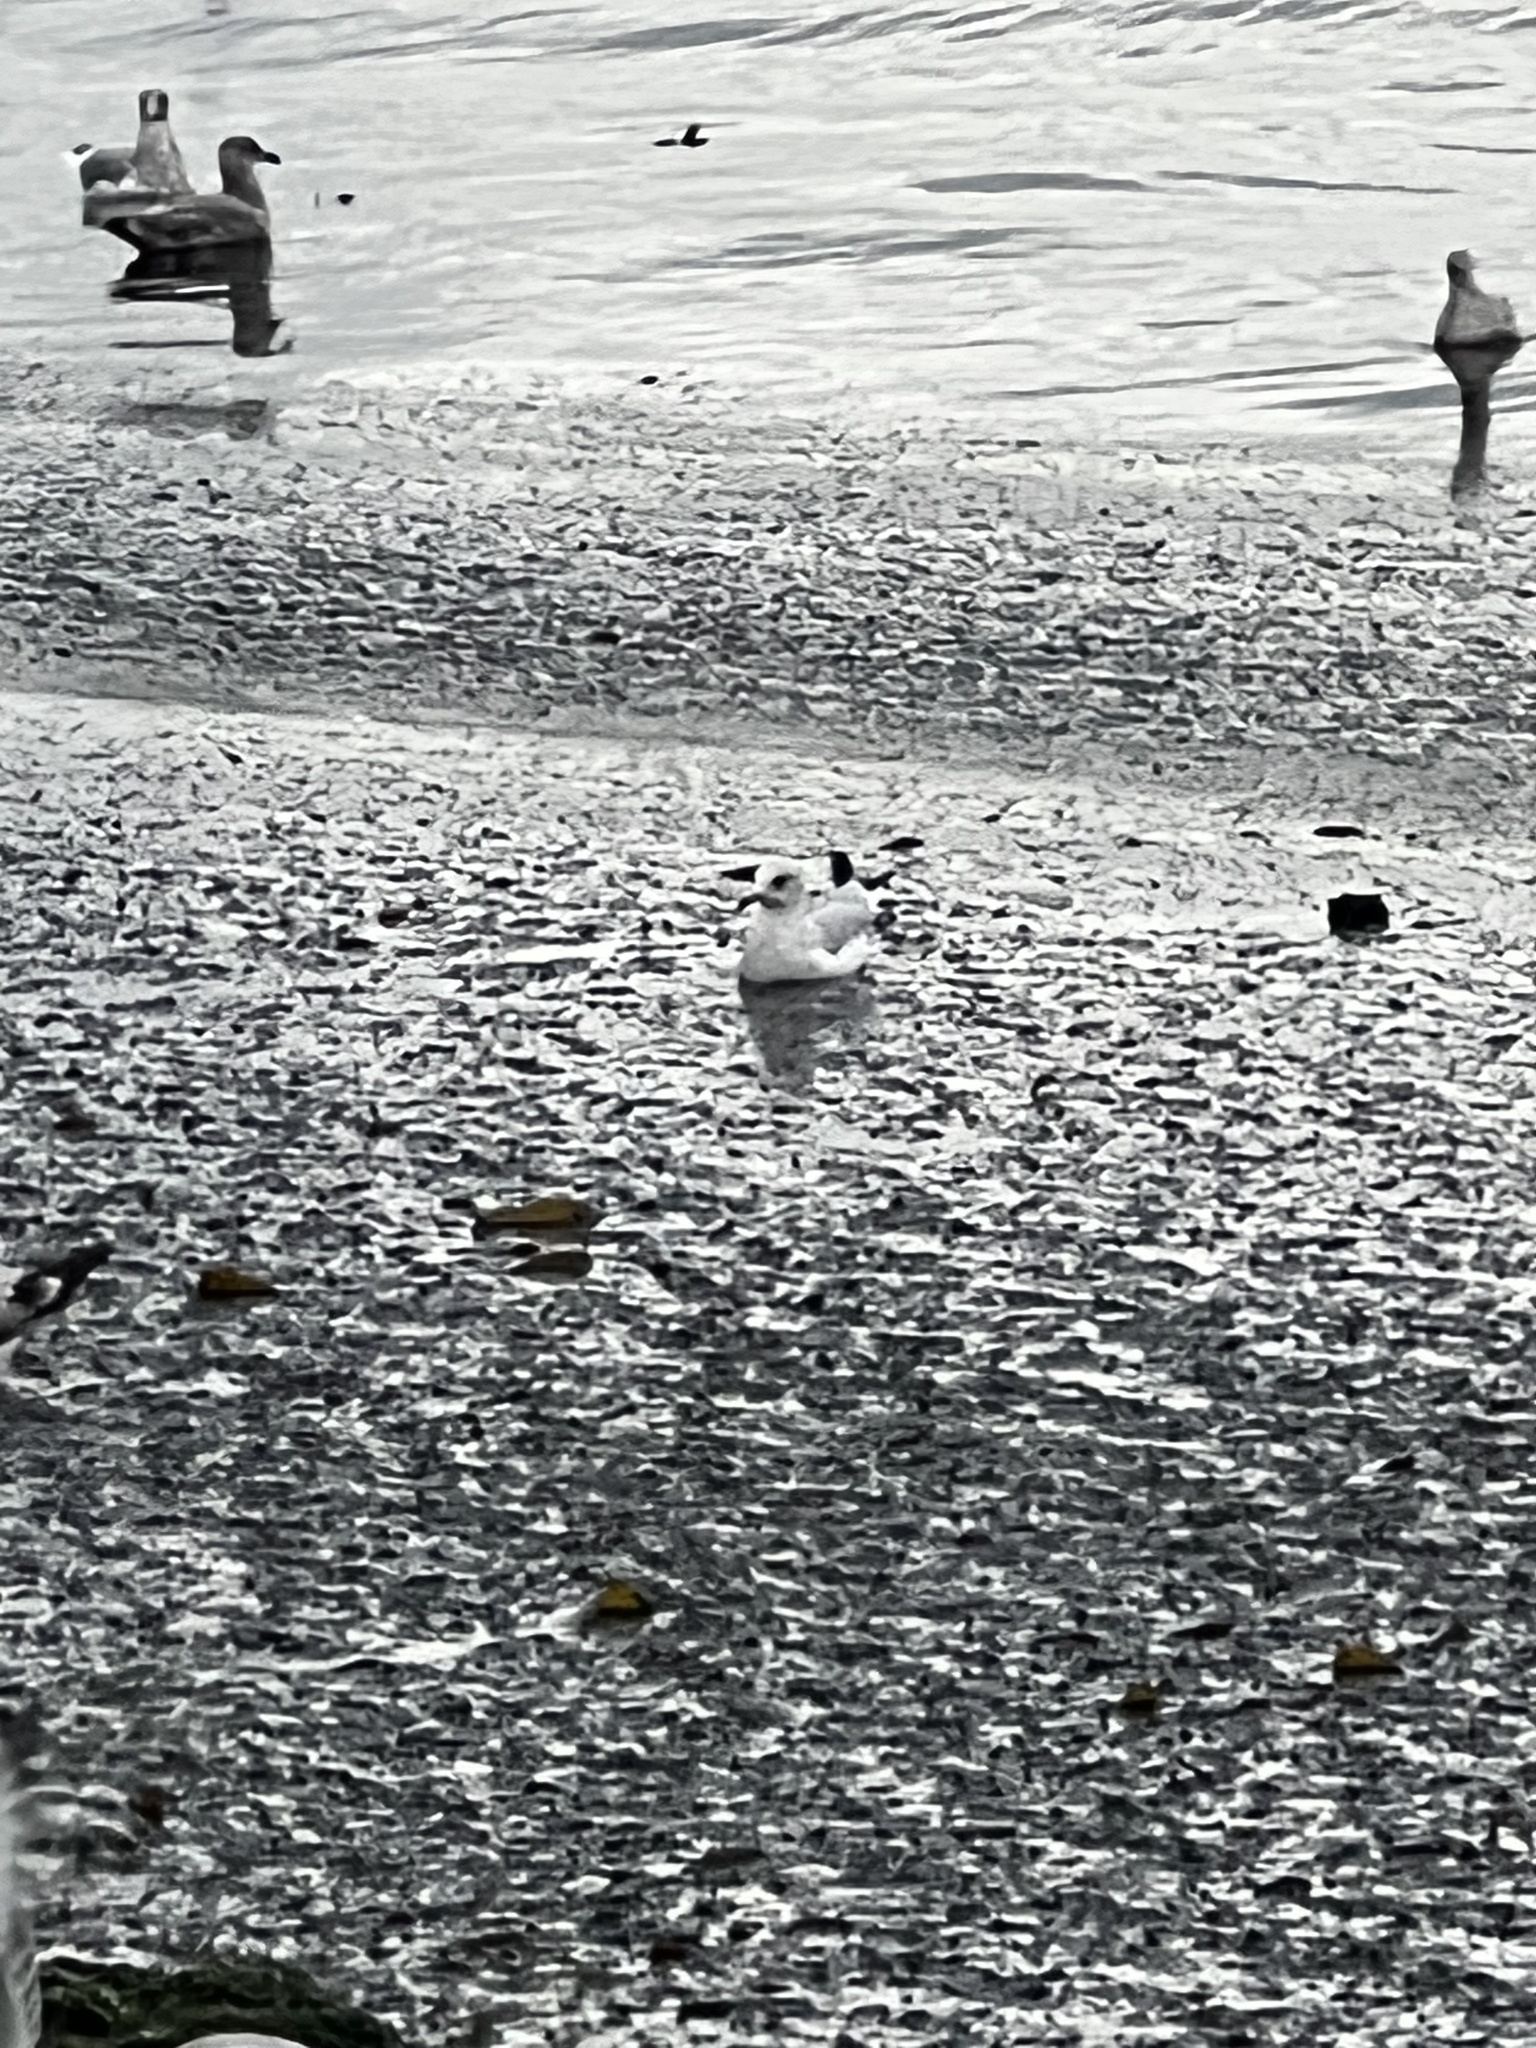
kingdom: Animalia
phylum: Chordata
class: Aves
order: Charadriiformes
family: Laridae
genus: Larus
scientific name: Larus delawarensis
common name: Ring-billed gull
